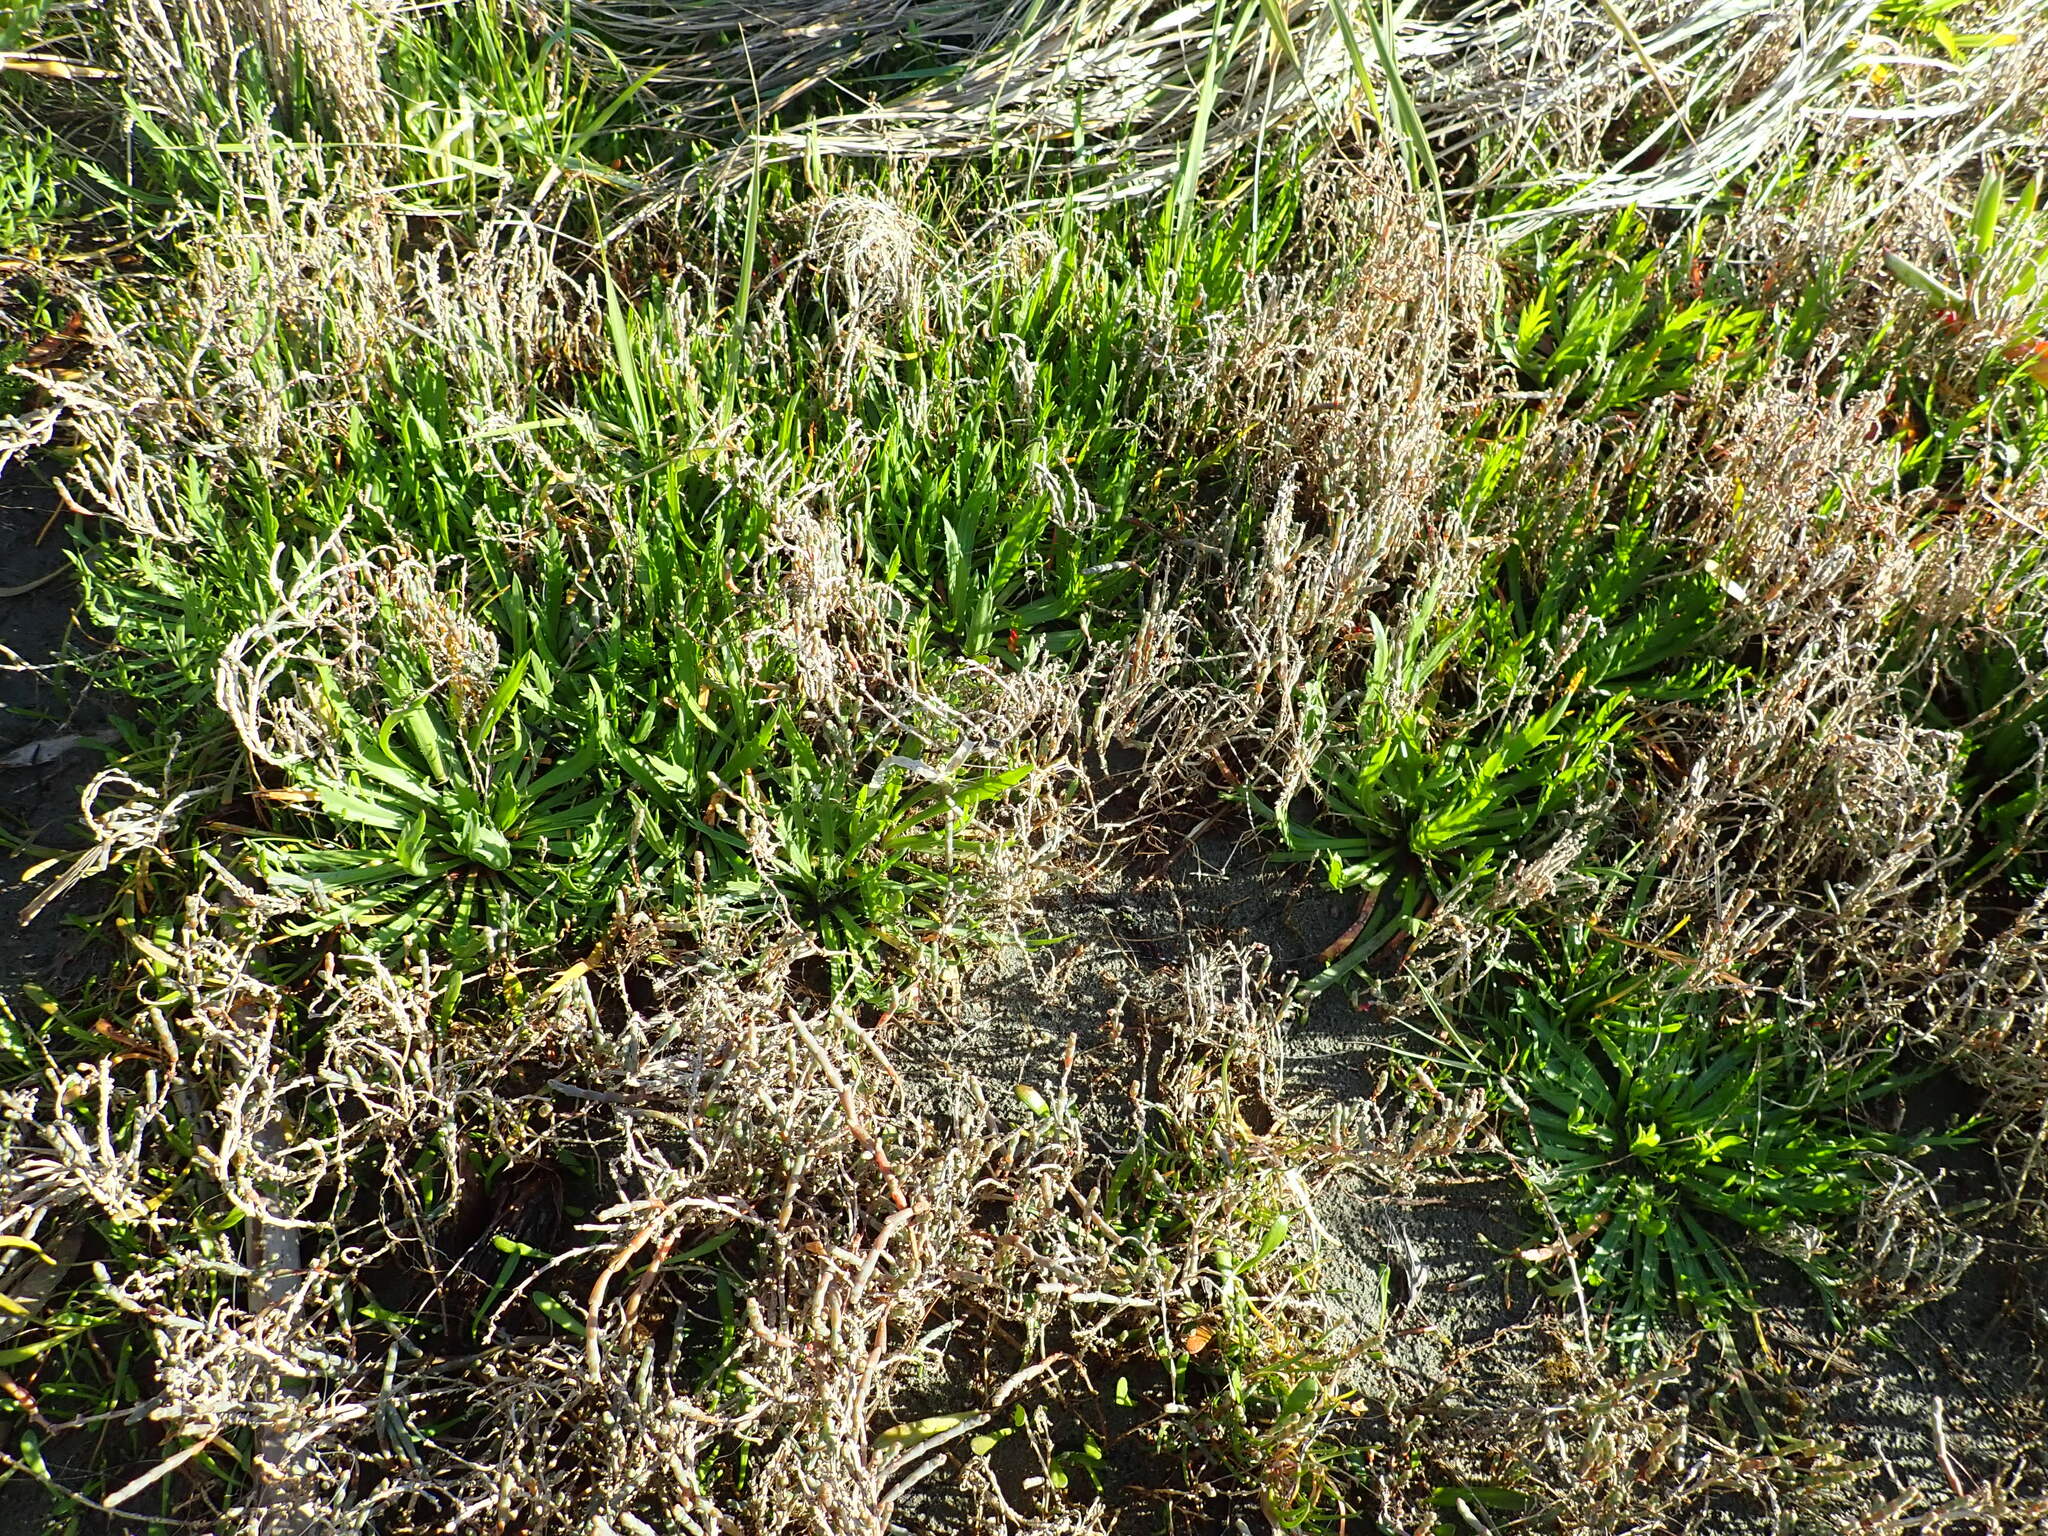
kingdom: Plantae
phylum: Tracheophyta
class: Magnoliopsida
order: Lamiales
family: Plantaginaceae
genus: Plantago
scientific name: Plantago coronopus
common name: Buck's-horn plantain
